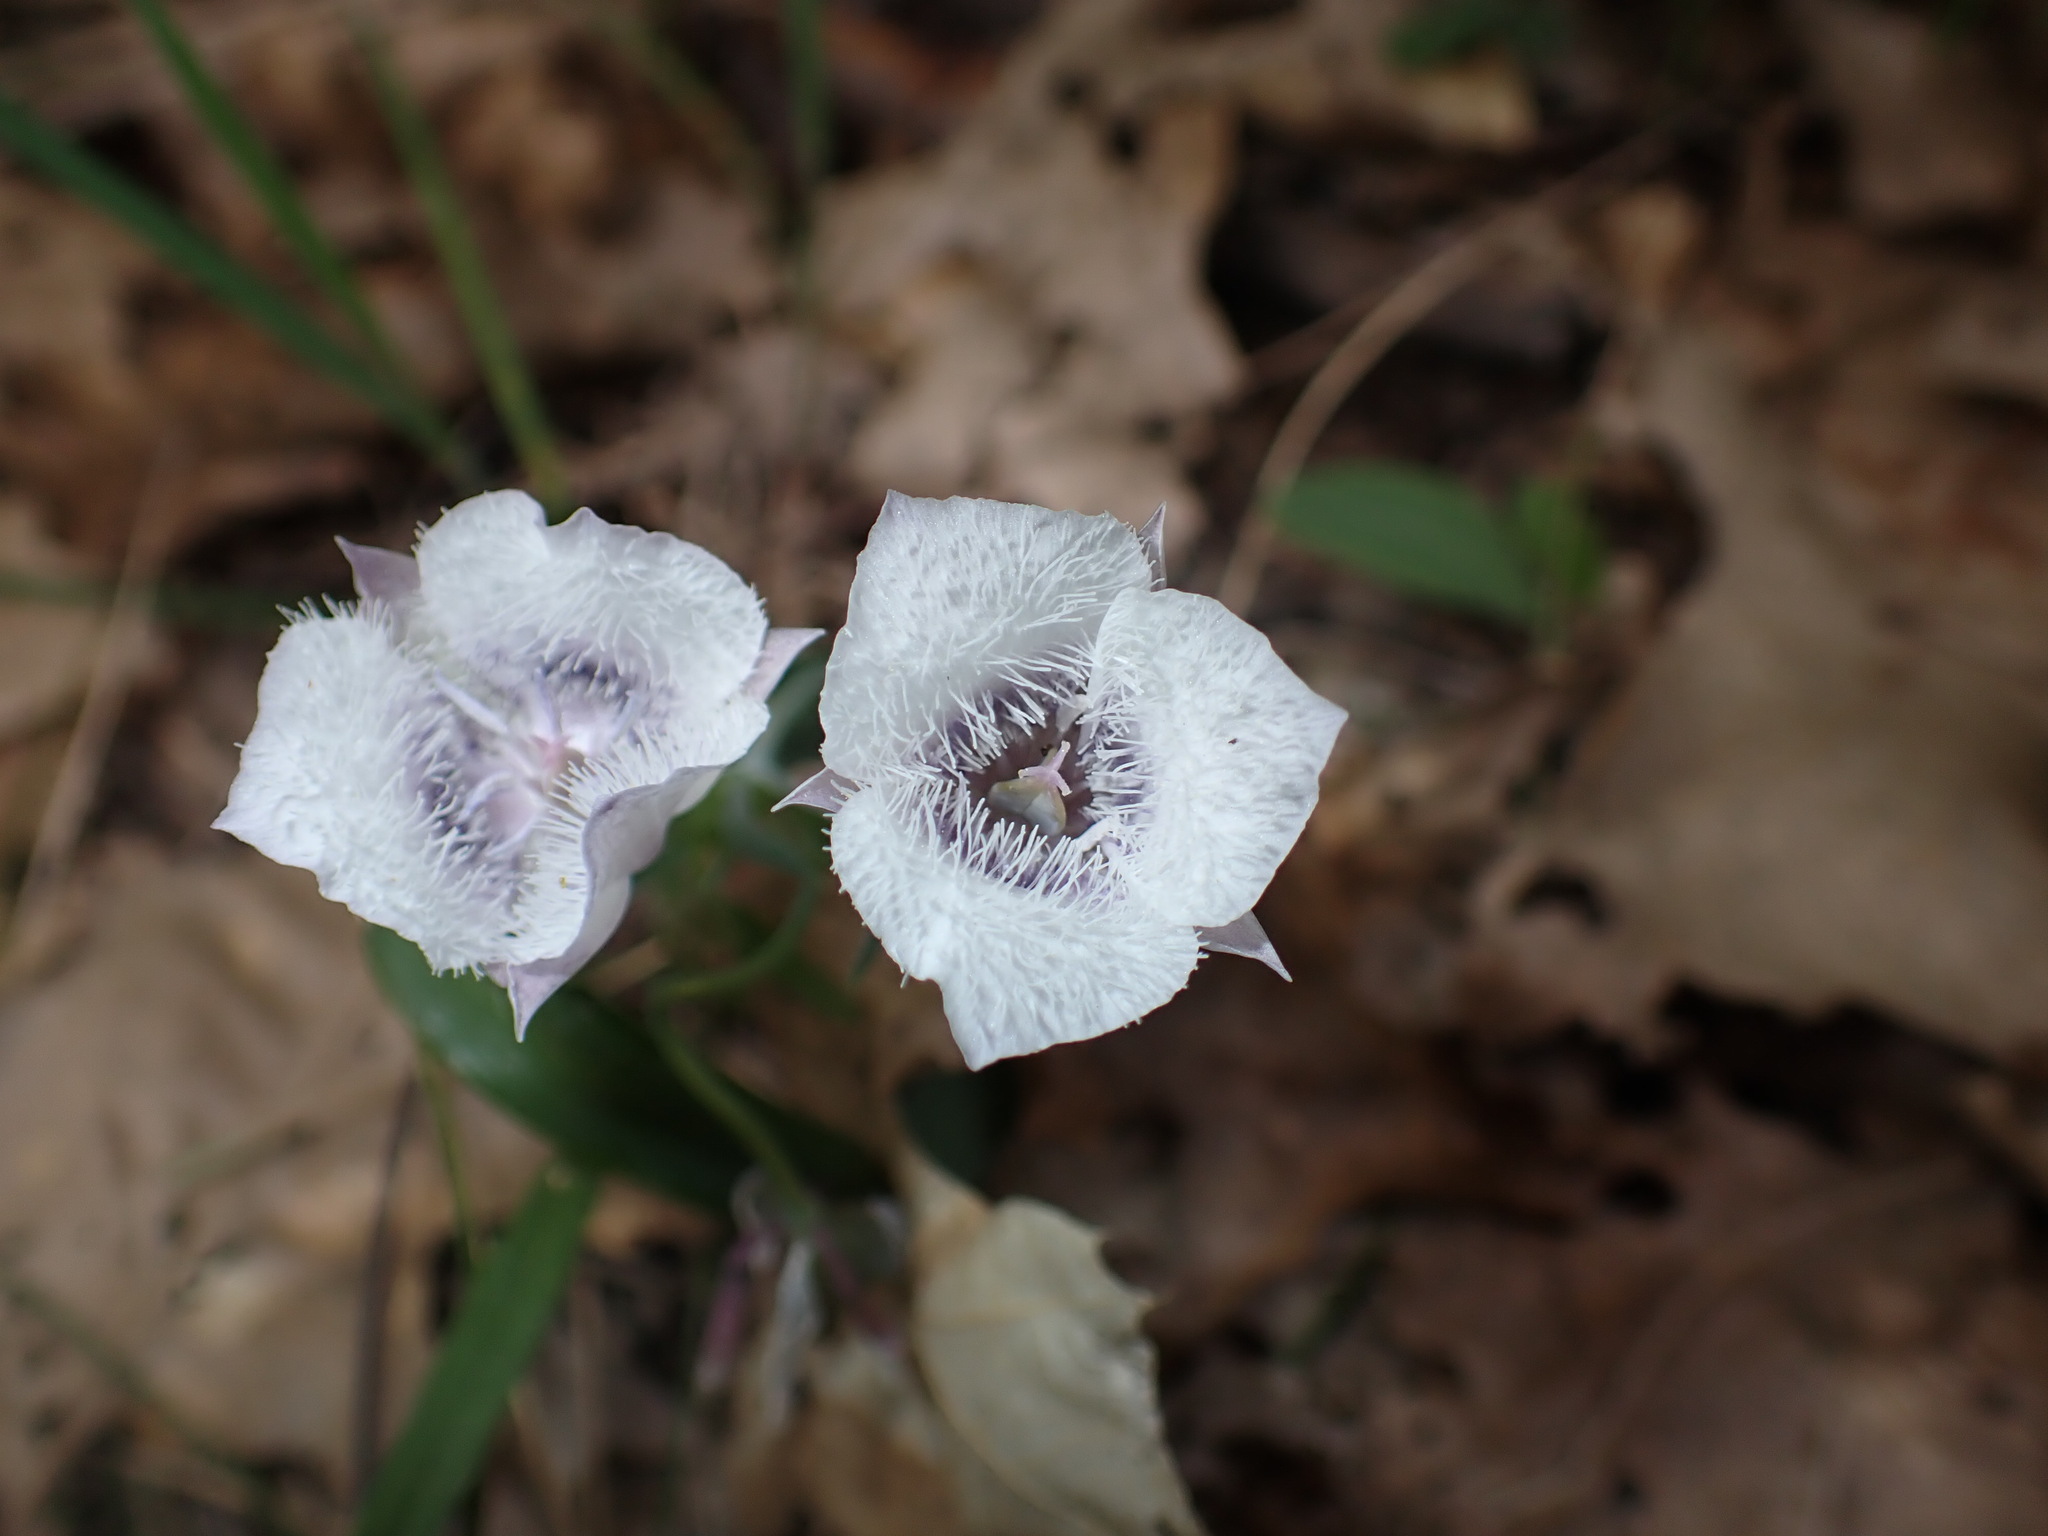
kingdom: Plantae
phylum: Tracheophyta
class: Liliopsida
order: Liliales
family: Liliaceae
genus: Calochortus
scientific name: Calochortus tolmiei
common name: Pussy-ears
